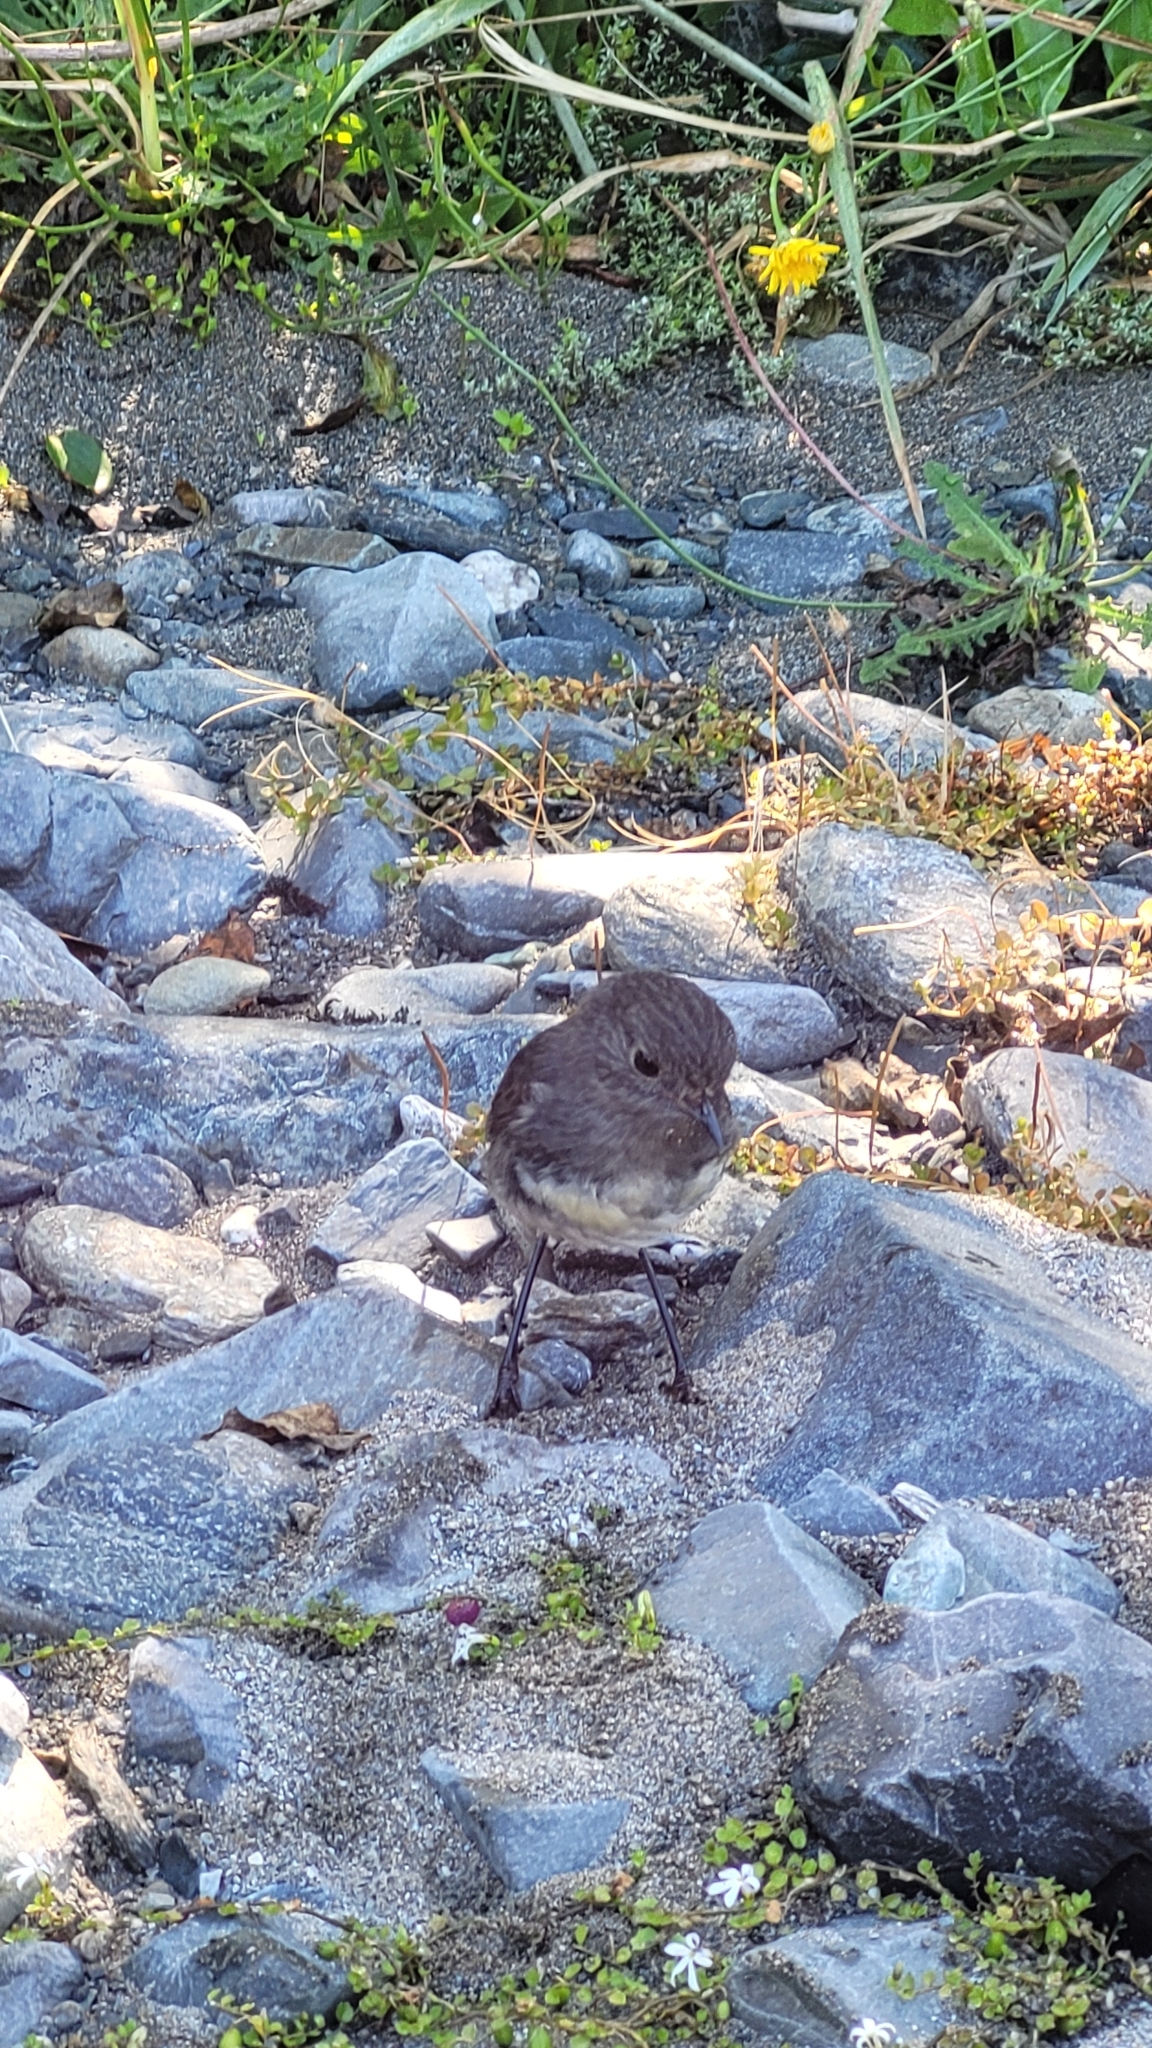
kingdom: Animalia
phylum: Chordata
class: Aves
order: Passeriformes
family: Petroicidae
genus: Petroica
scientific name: Petroica australis
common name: New zealand robin
